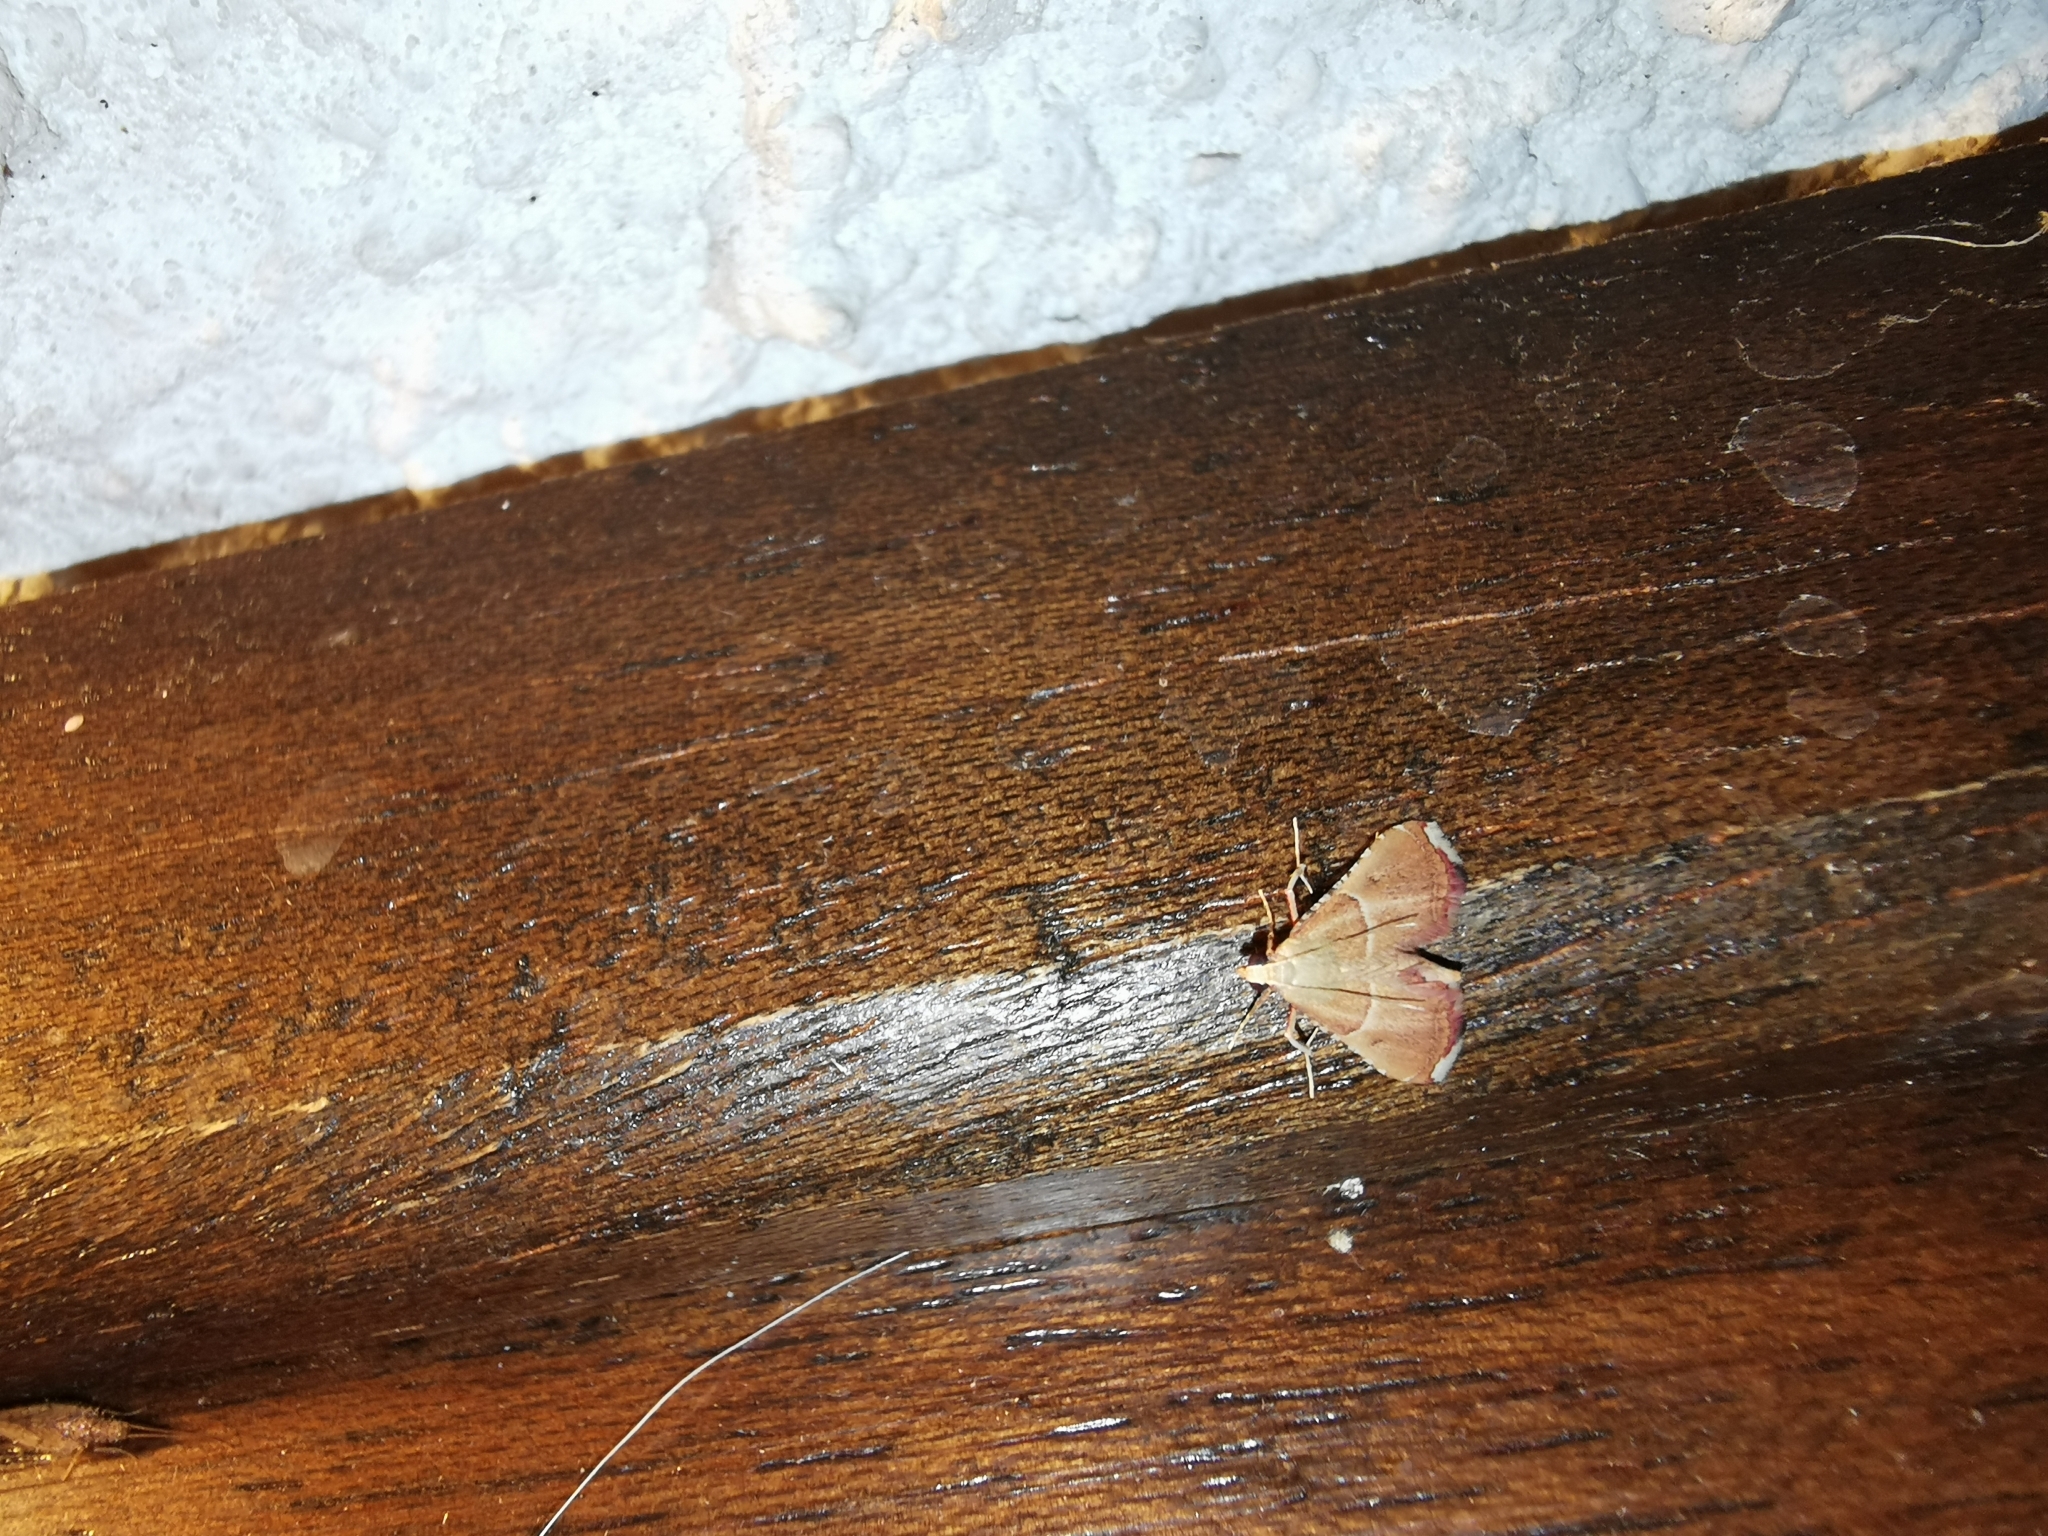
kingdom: Animalia
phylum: Arthropoda
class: Insecta
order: Lepidoptera
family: Pyralidae
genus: Endotricha
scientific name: Endotricha flammealis
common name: Rosy tabby
